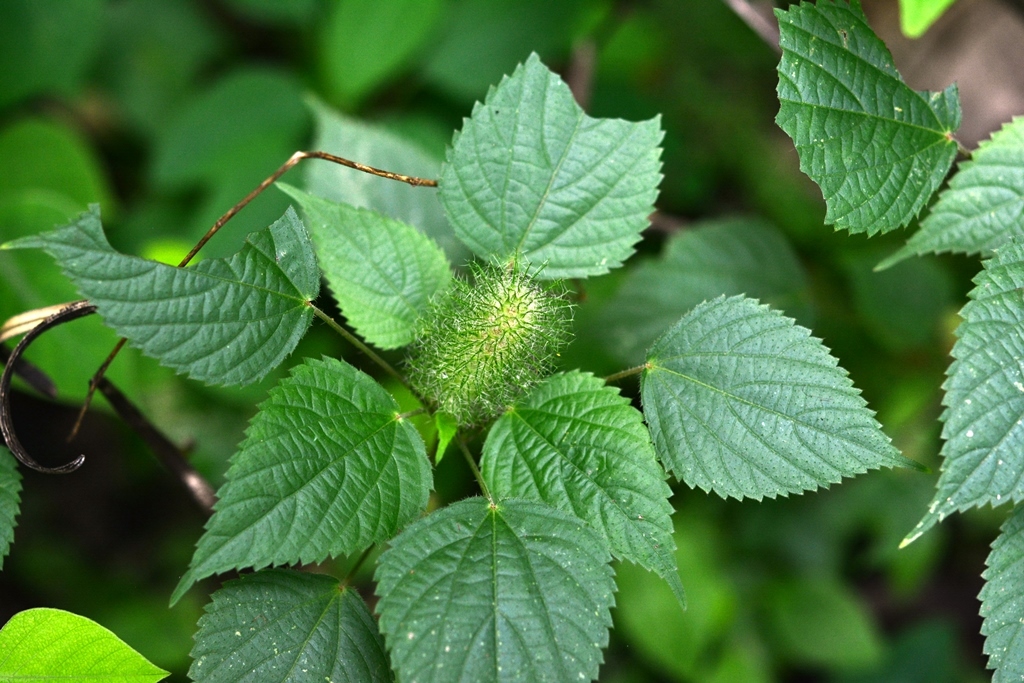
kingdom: Plantae
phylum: Tracheophyta
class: Magnoliopsida
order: Malpighiales
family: Euphorbiaceae
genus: Acalypha
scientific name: Acalypha alopecuroidea
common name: Foxtail copperleaf
